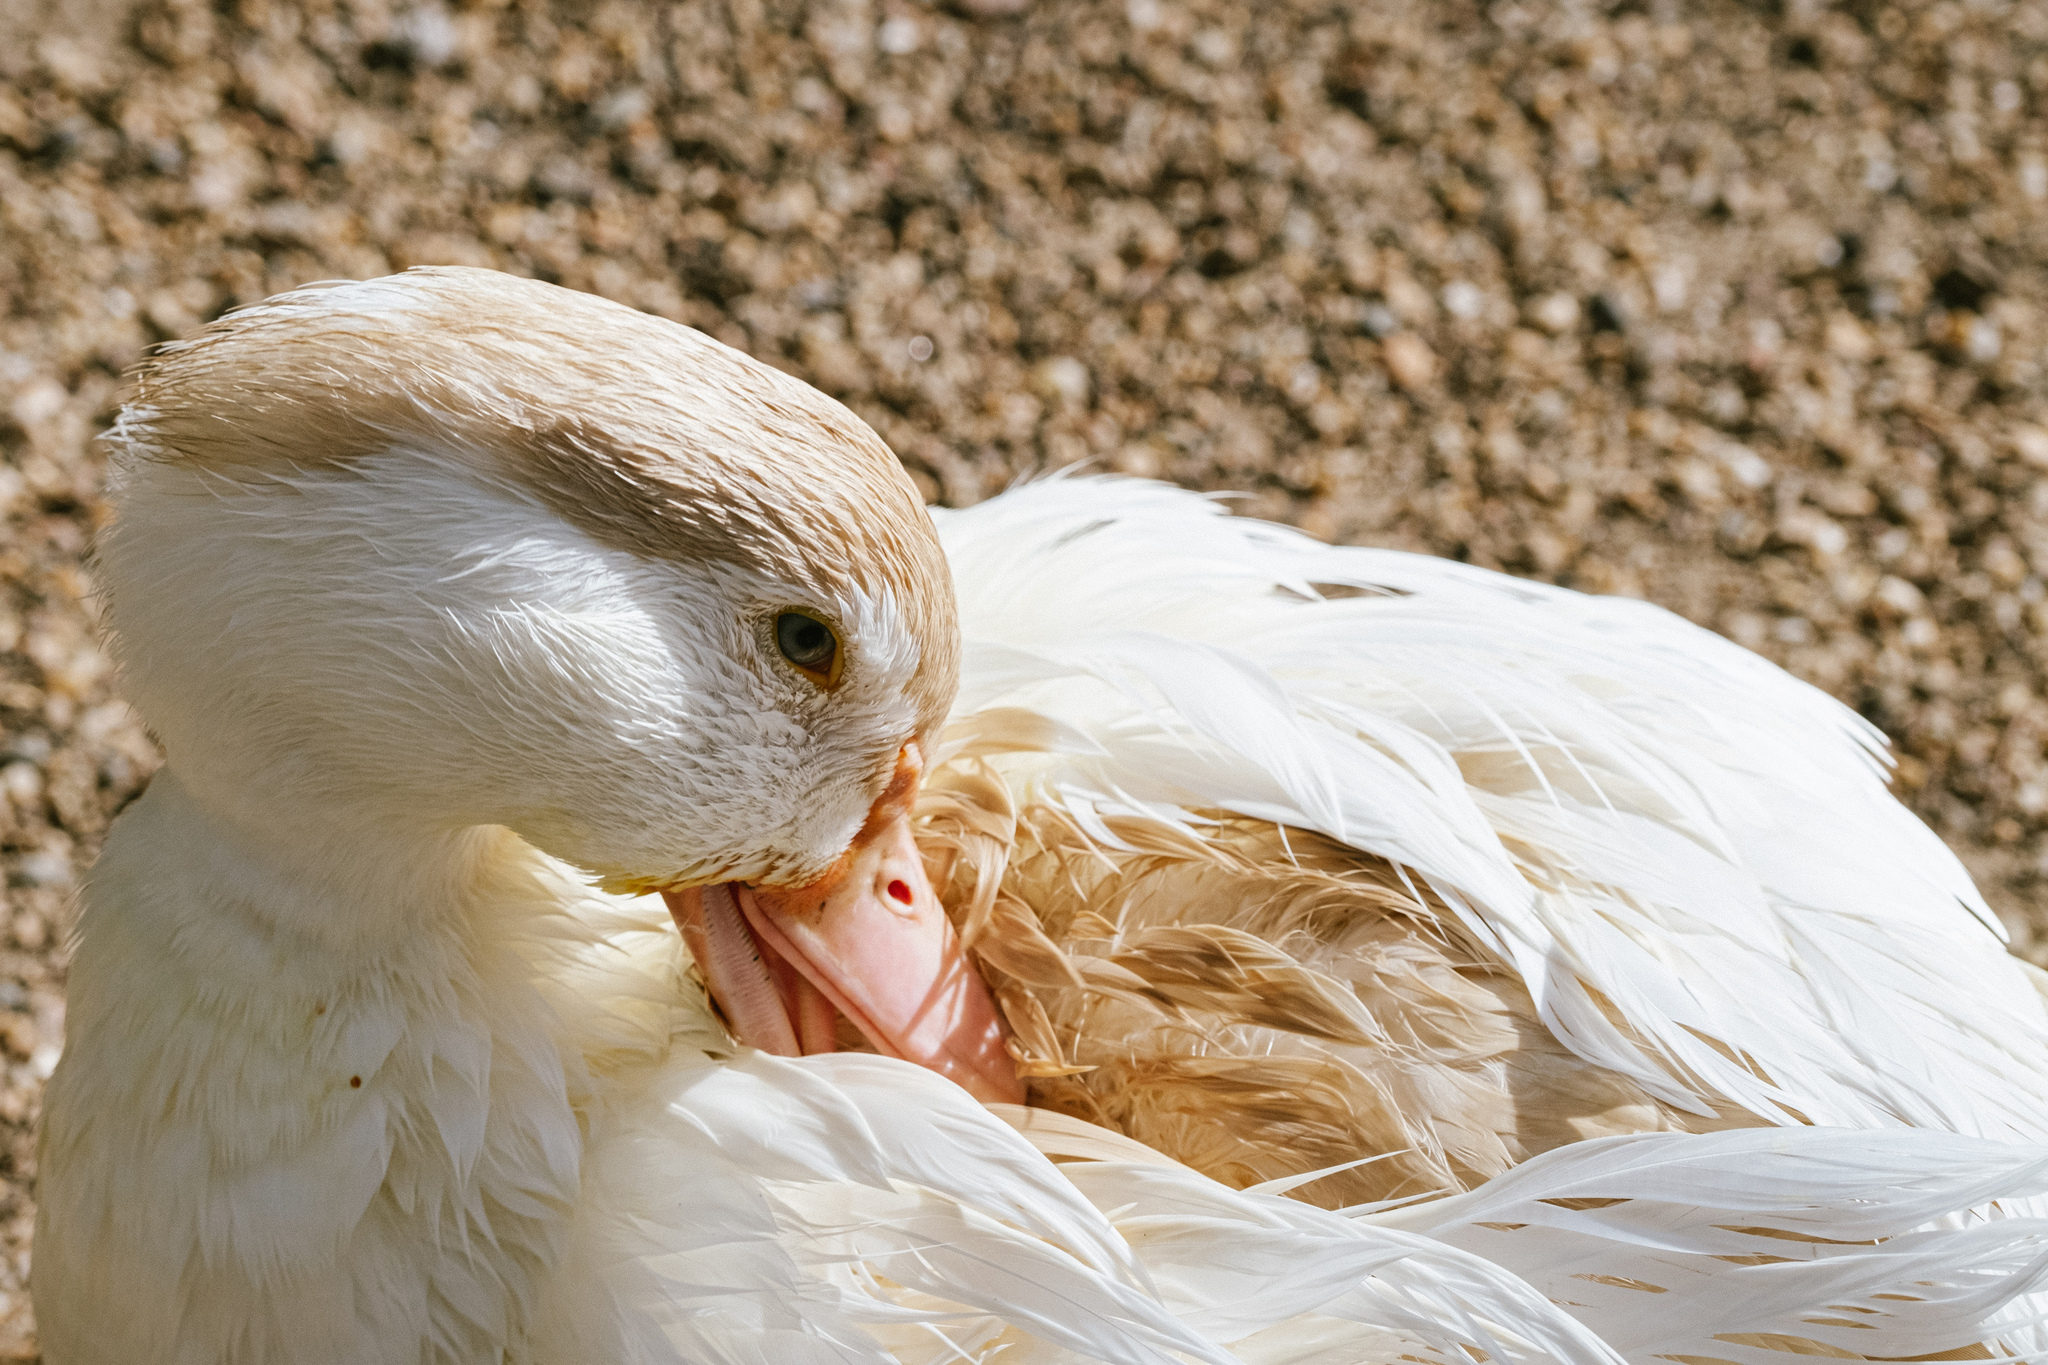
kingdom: Animalia
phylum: Chordata
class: Aves
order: Anseriformes
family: Anatidae
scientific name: Anatidae
